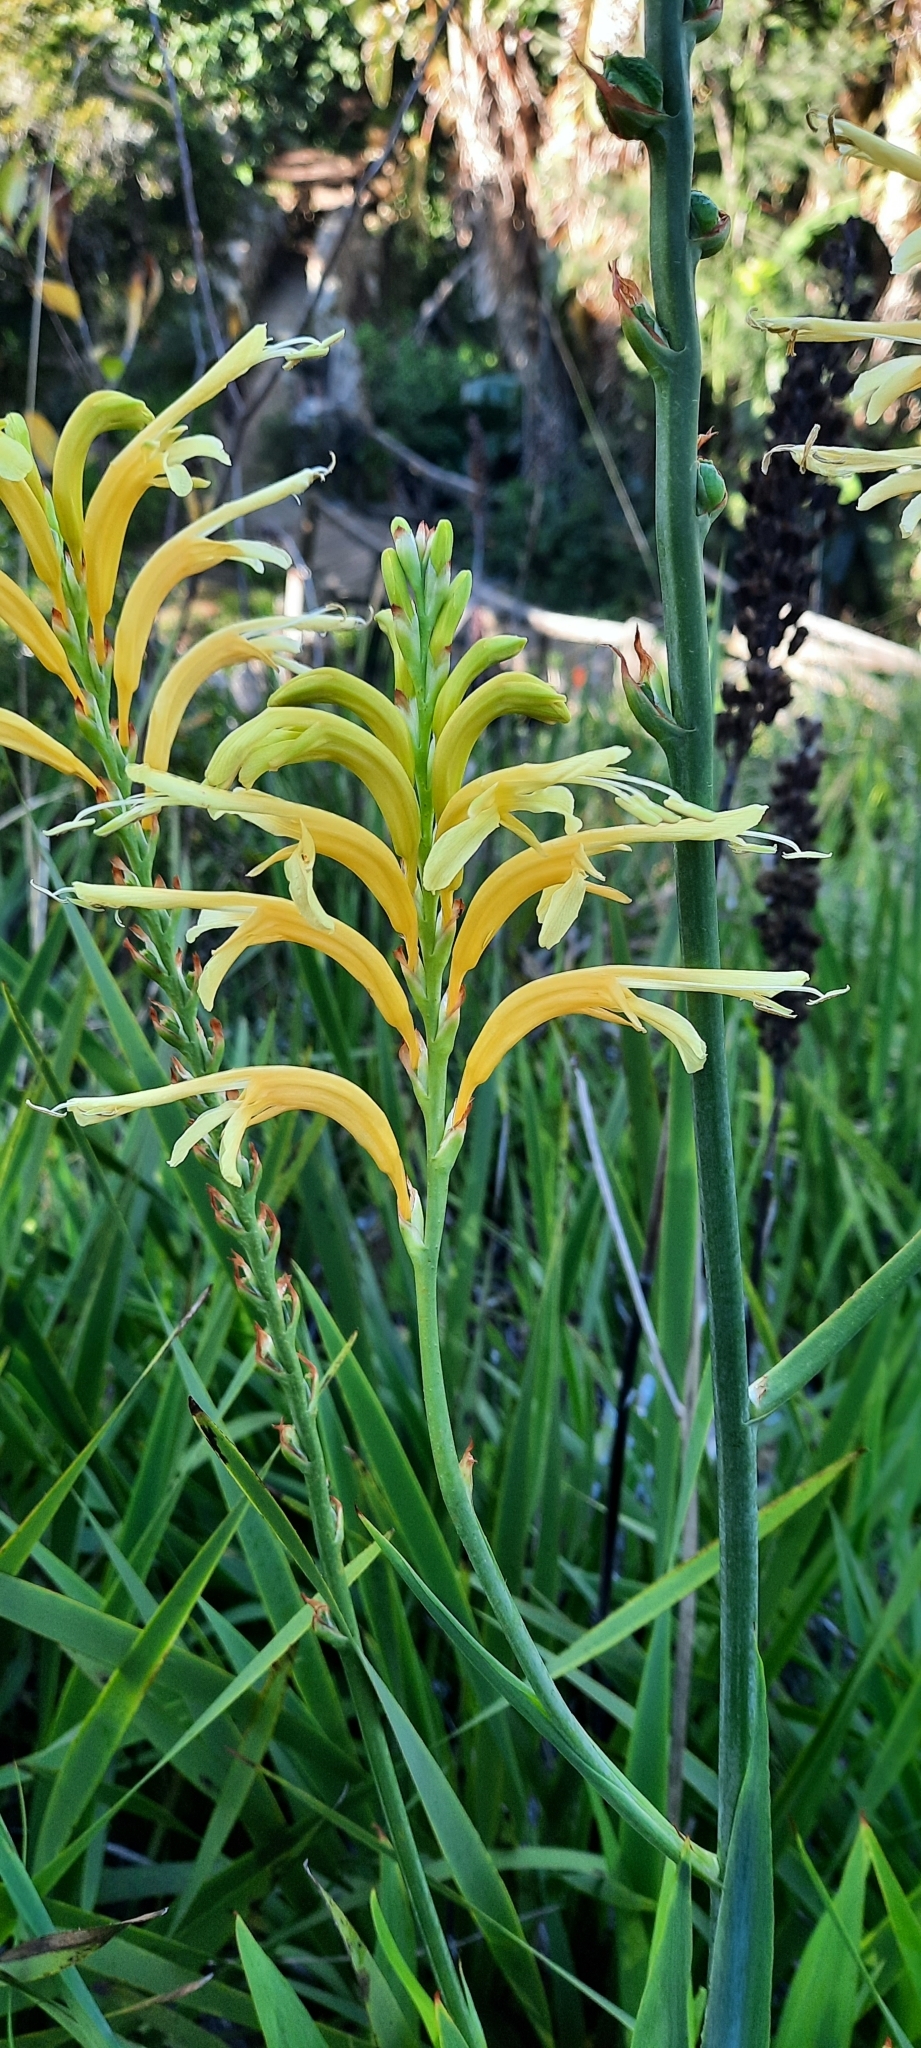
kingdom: Plantae
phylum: Tracheophyta
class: Liliopsida
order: Asparagales
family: Iridaceae
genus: Chasmanthe
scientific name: Chasmanthe floribunda
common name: African cornflag
